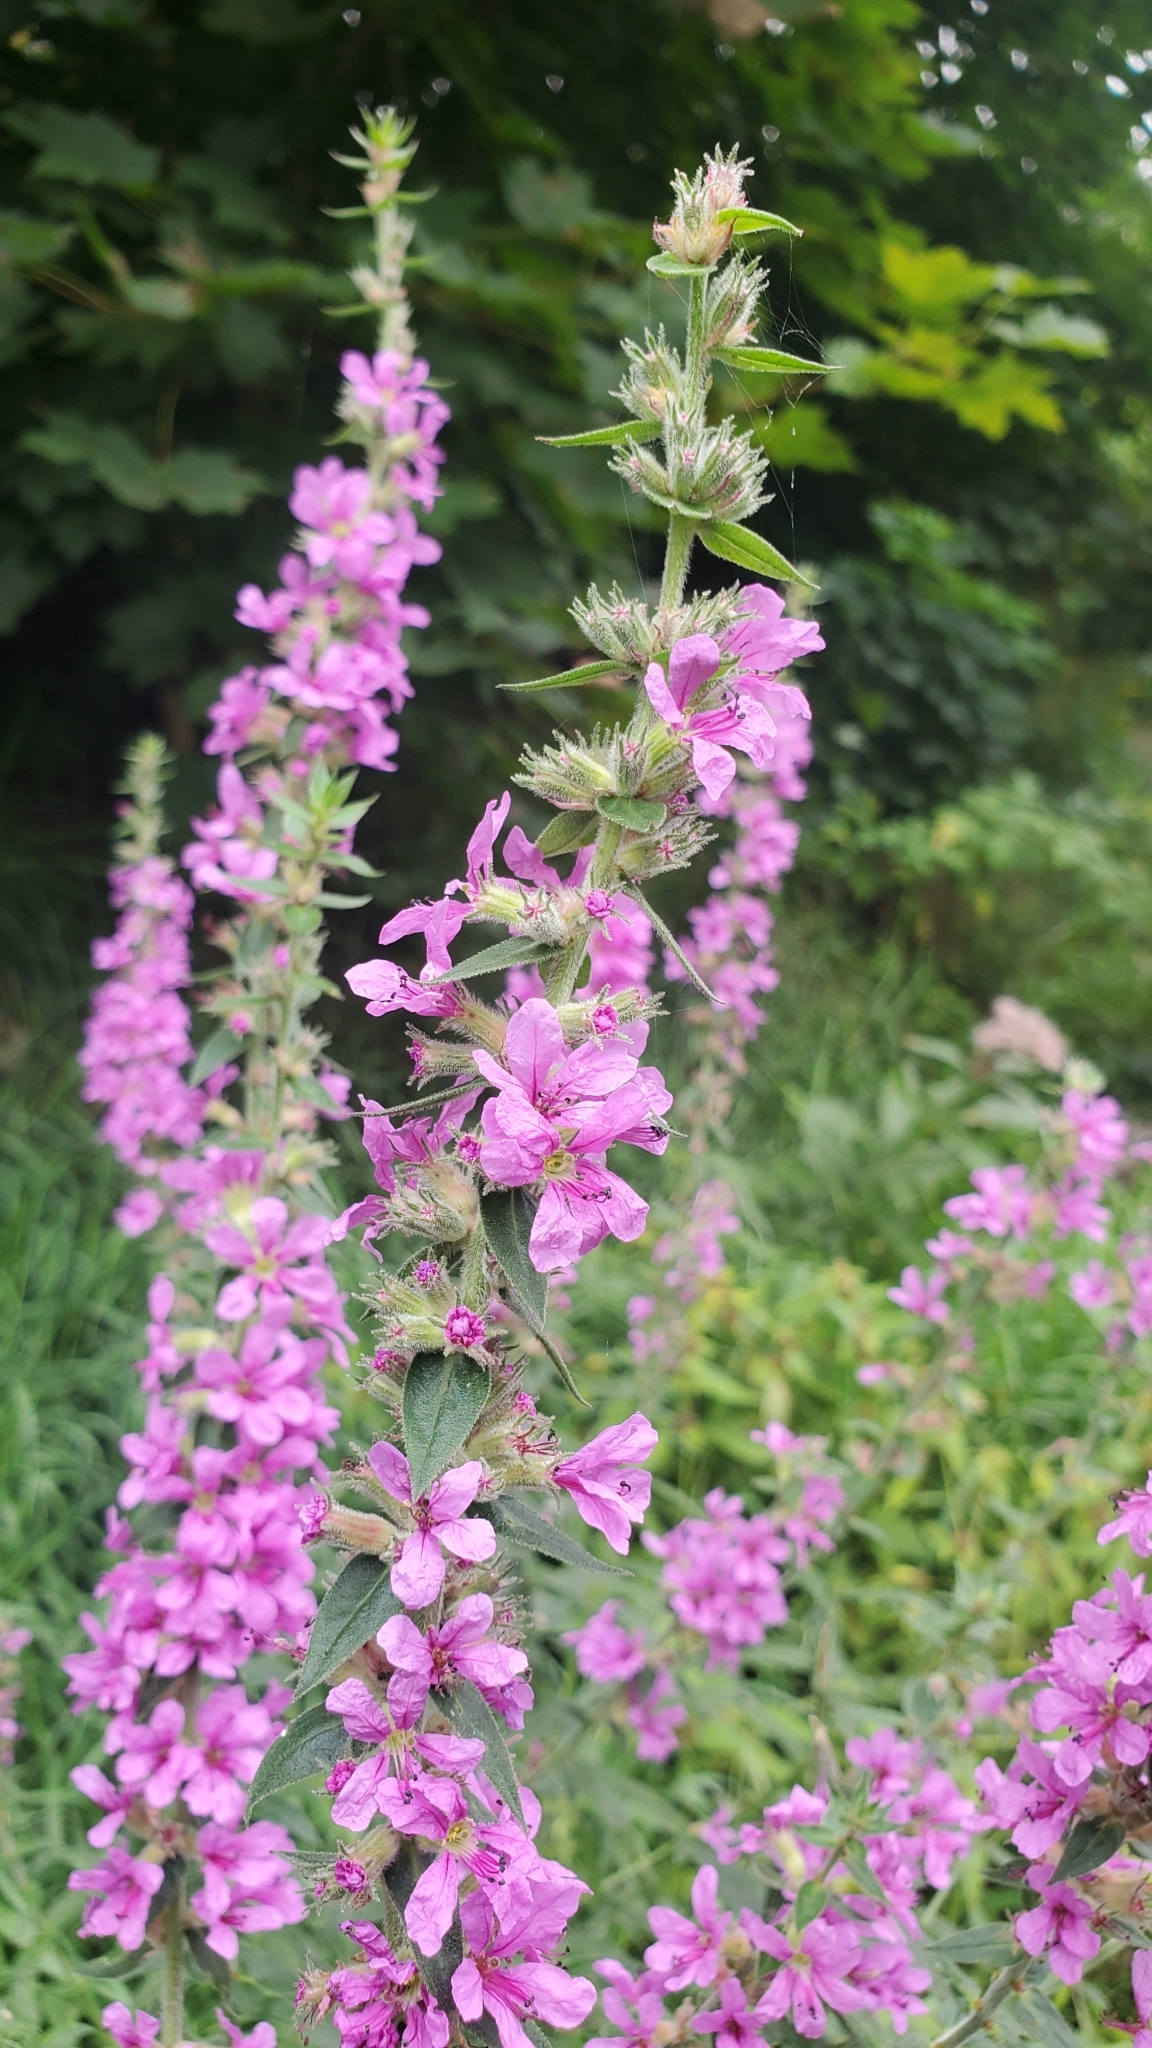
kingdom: Plantae
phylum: Tracheophyta
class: Magnoliopsida
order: Myrtales
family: Lythraceae
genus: Lythrum
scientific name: Lythrum salicaria
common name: Purple loosestrife
